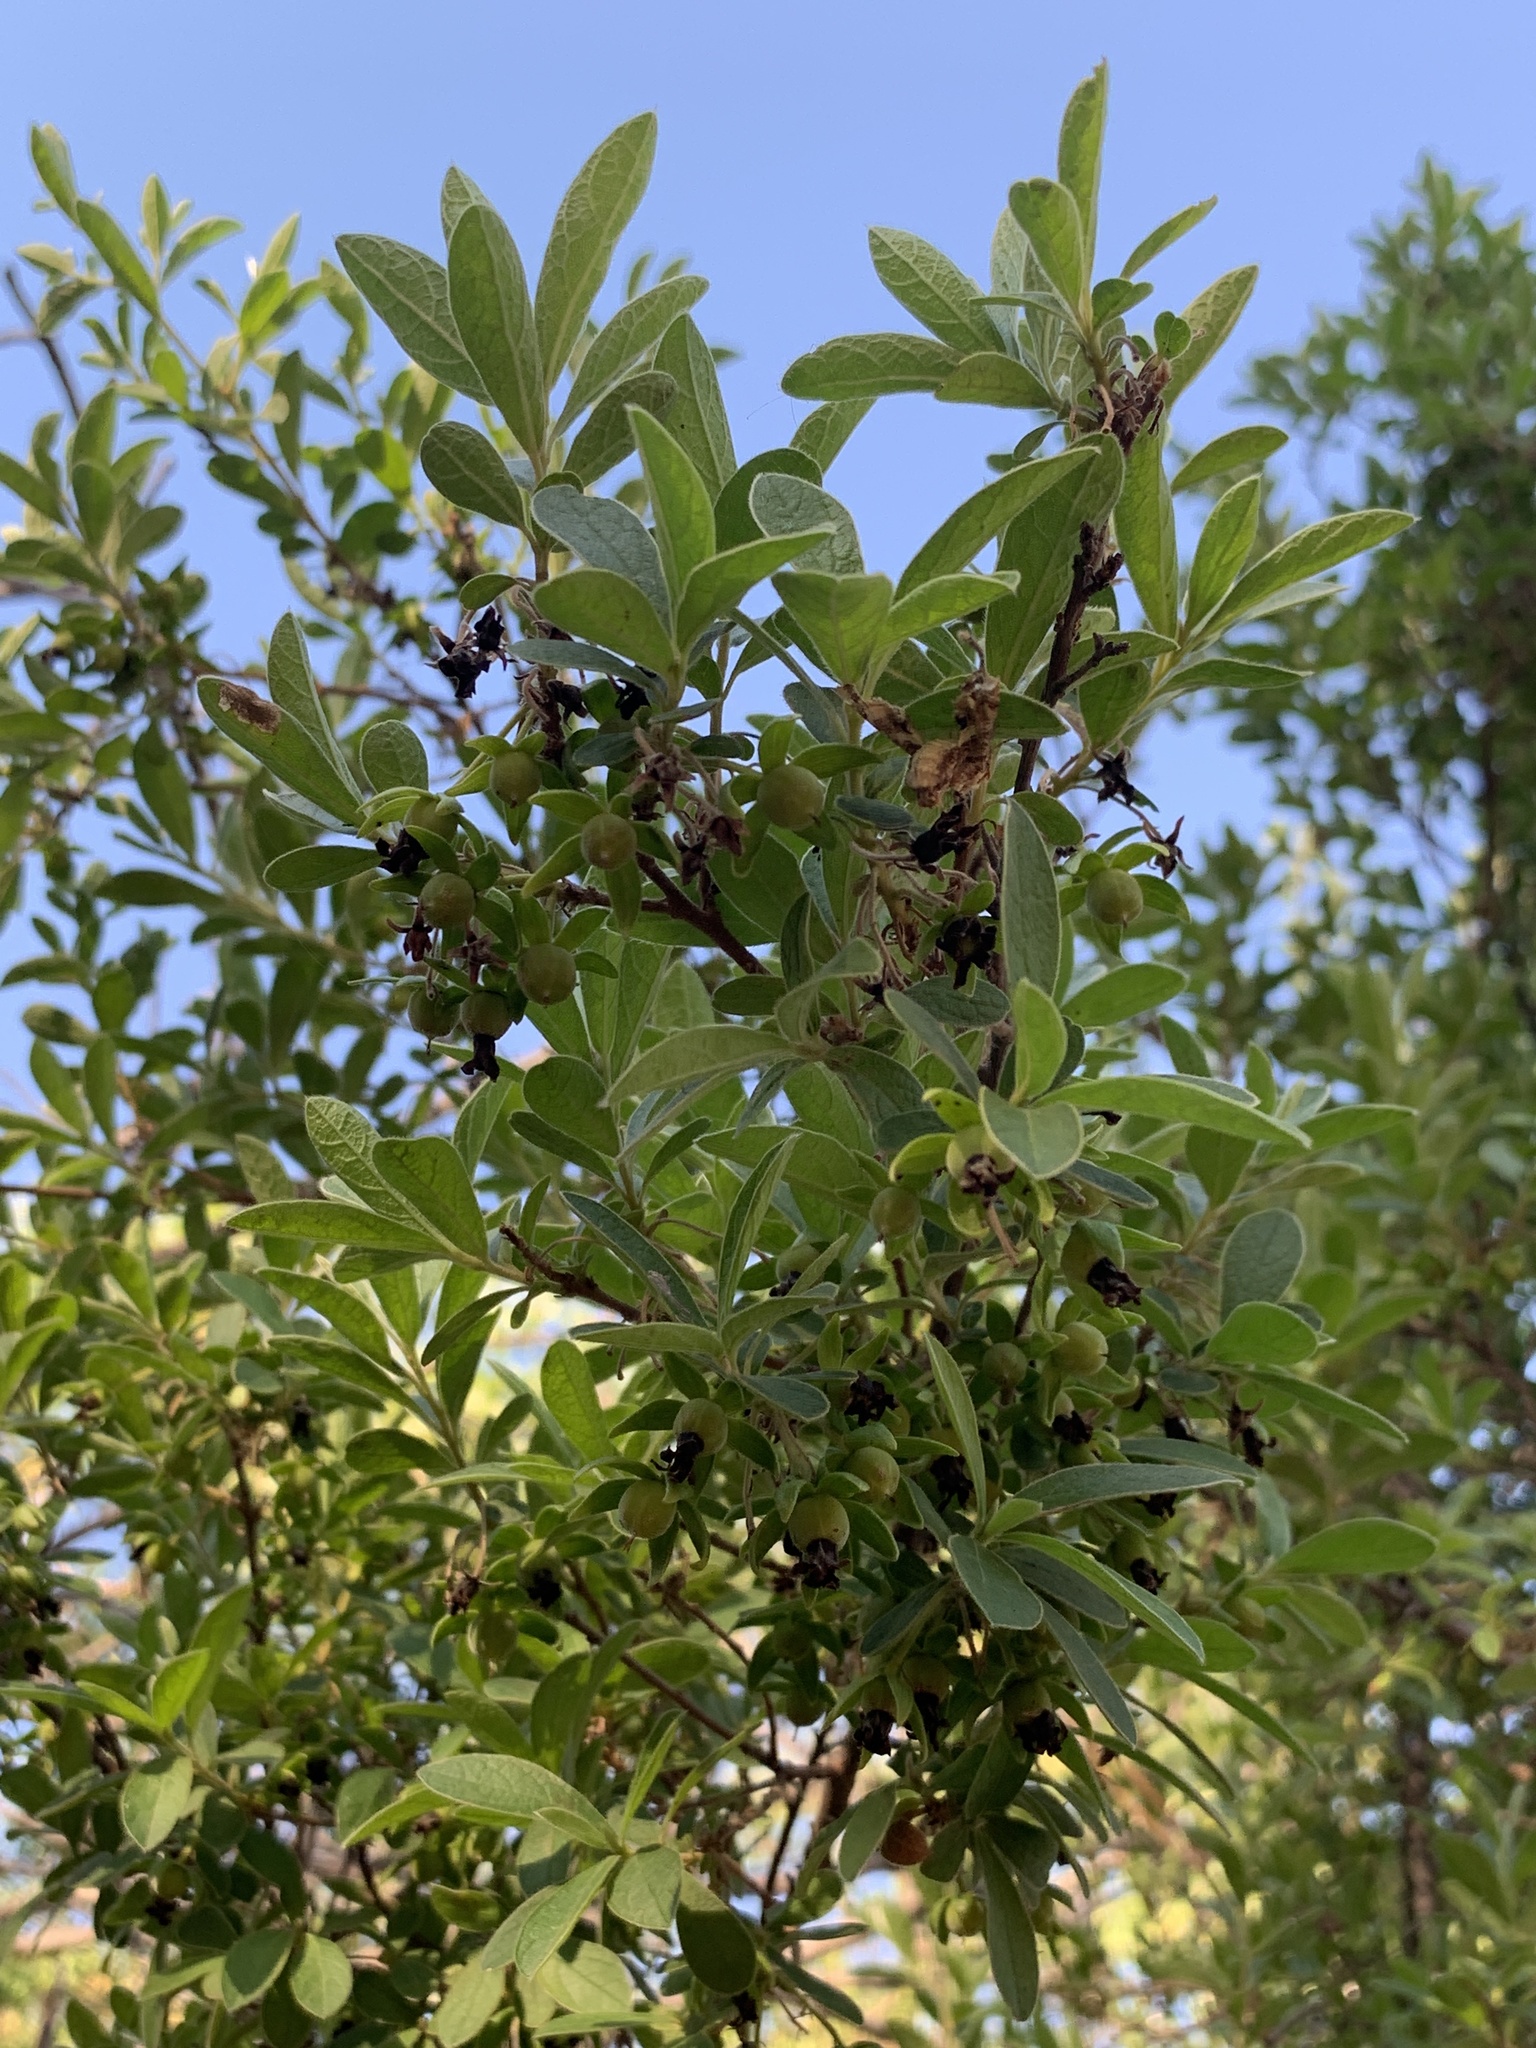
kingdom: Plantae
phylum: Tracheophyta
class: Magnoliopsida
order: Ericales
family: Ebenaceae
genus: Diospyros
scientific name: Diospyros lycioides
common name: Red star apple
